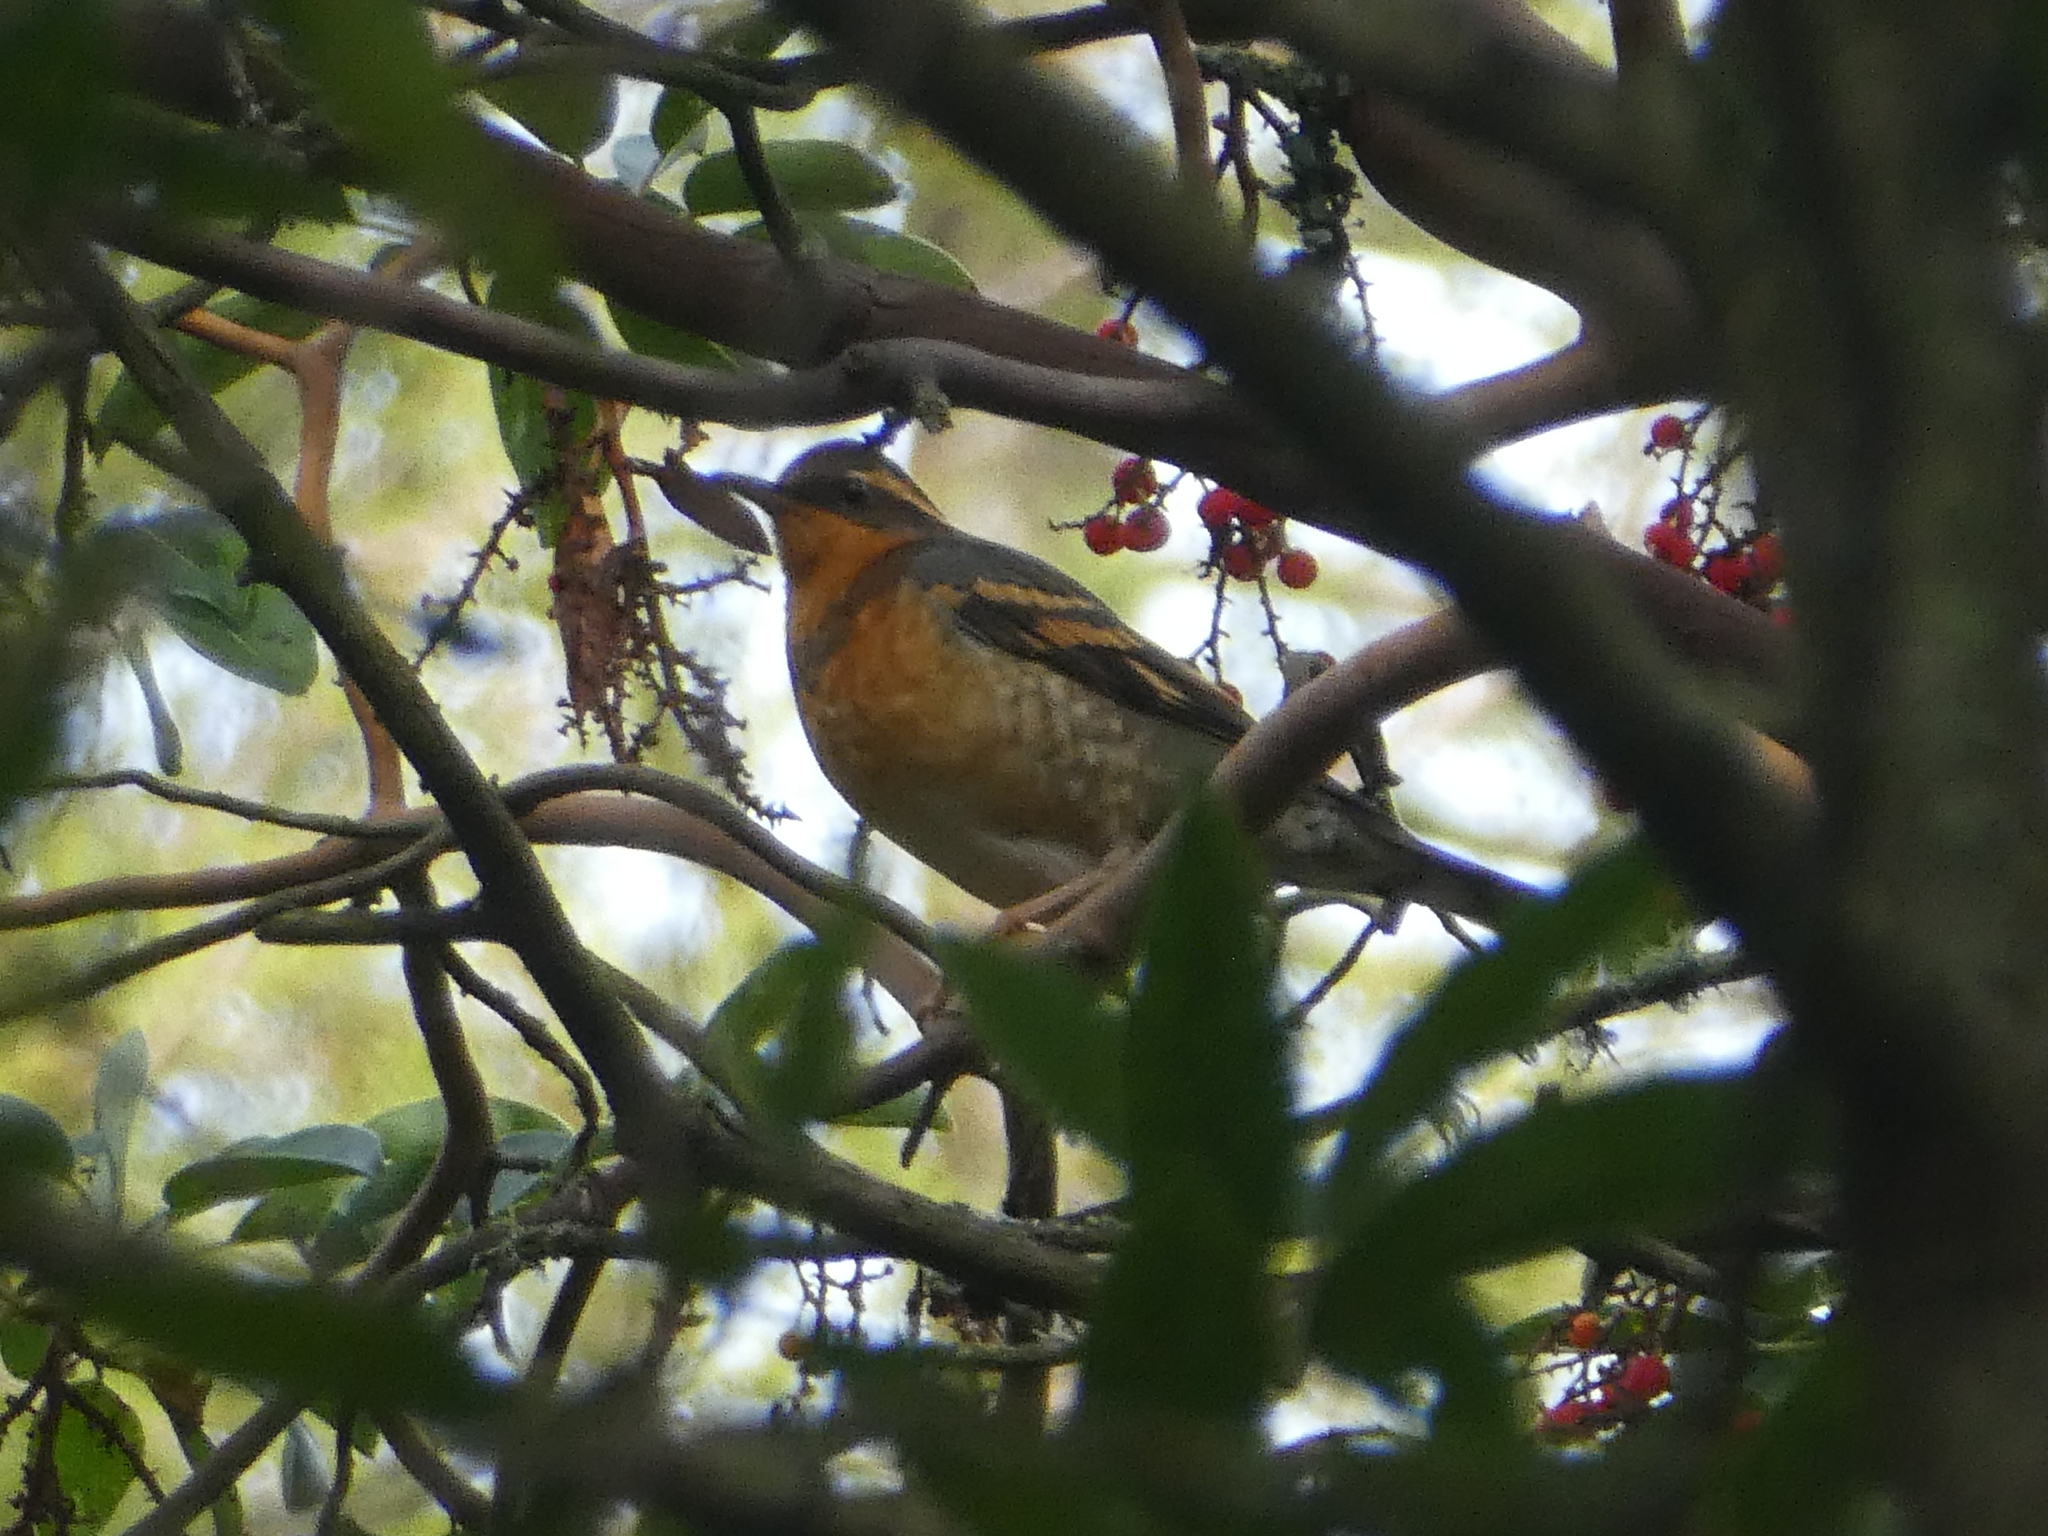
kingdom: Animalia
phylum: Chordata
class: Aves
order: Passeriformes
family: Turdidae
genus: Ixoreus
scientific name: Ixoreus naevius
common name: Varied thrush
